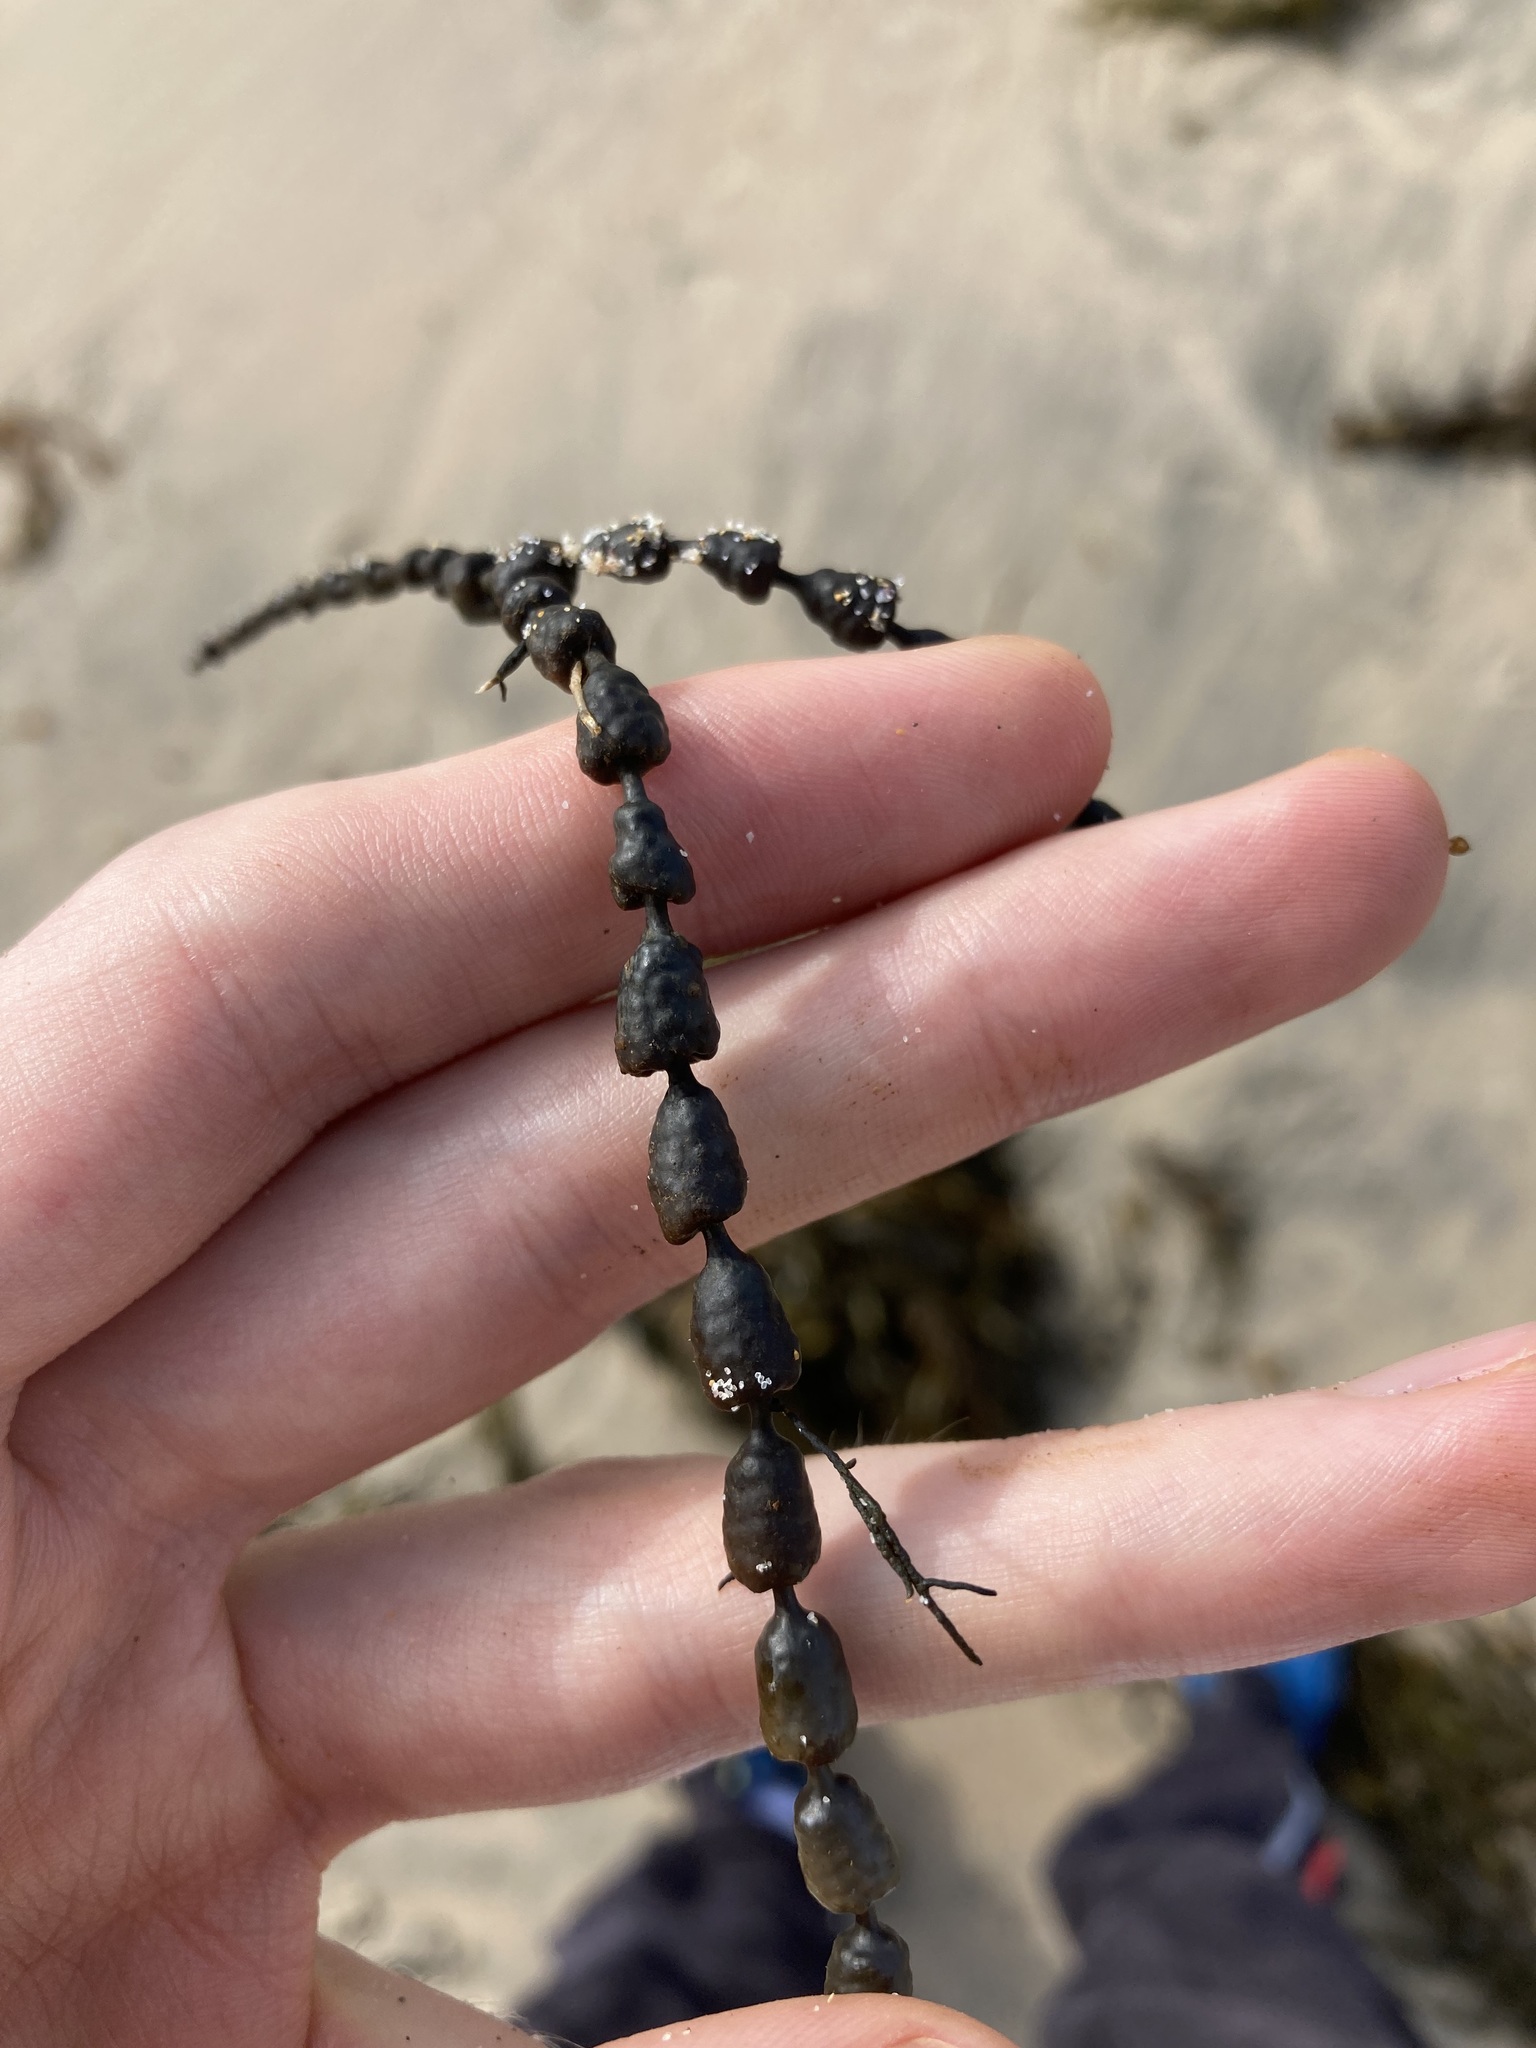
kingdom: Chromista
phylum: Ochrophyta
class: Phaeophyceae
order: Fucales
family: Hormosiraceae
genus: Hormosira
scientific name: Hormosira banksii
